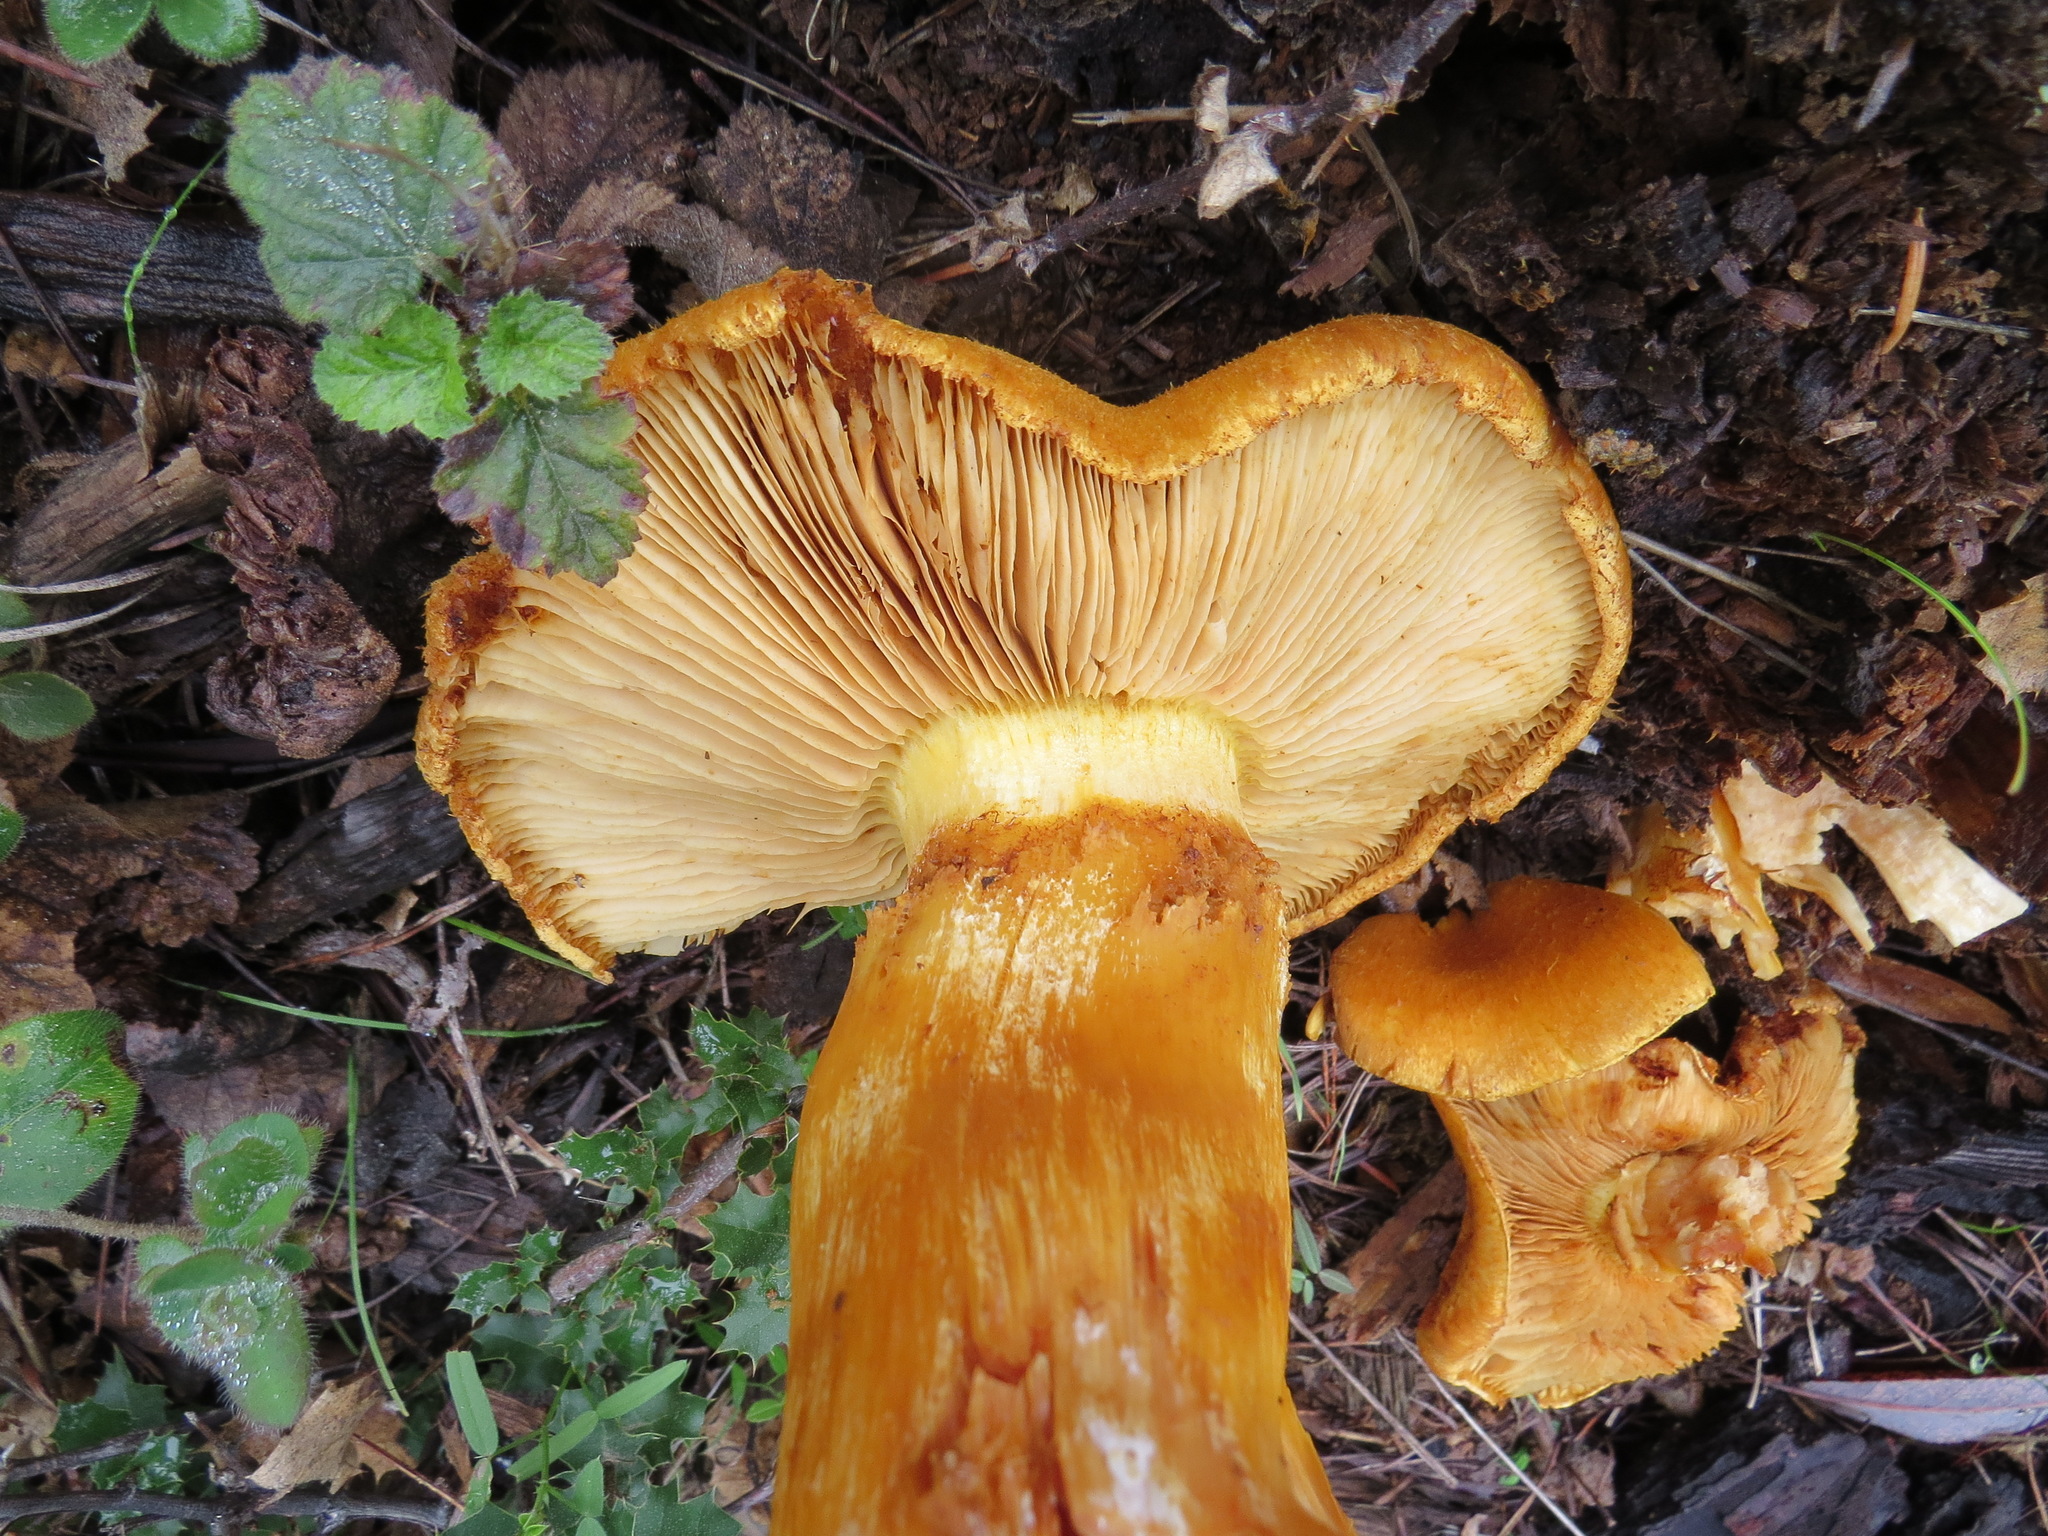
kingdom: Fungi
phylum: Basidiomycota
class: Agaricomycetes
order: Agaricales
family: Hymenogastraceae
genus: Gymnopilus
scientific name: Gymnopilus ventricosus
